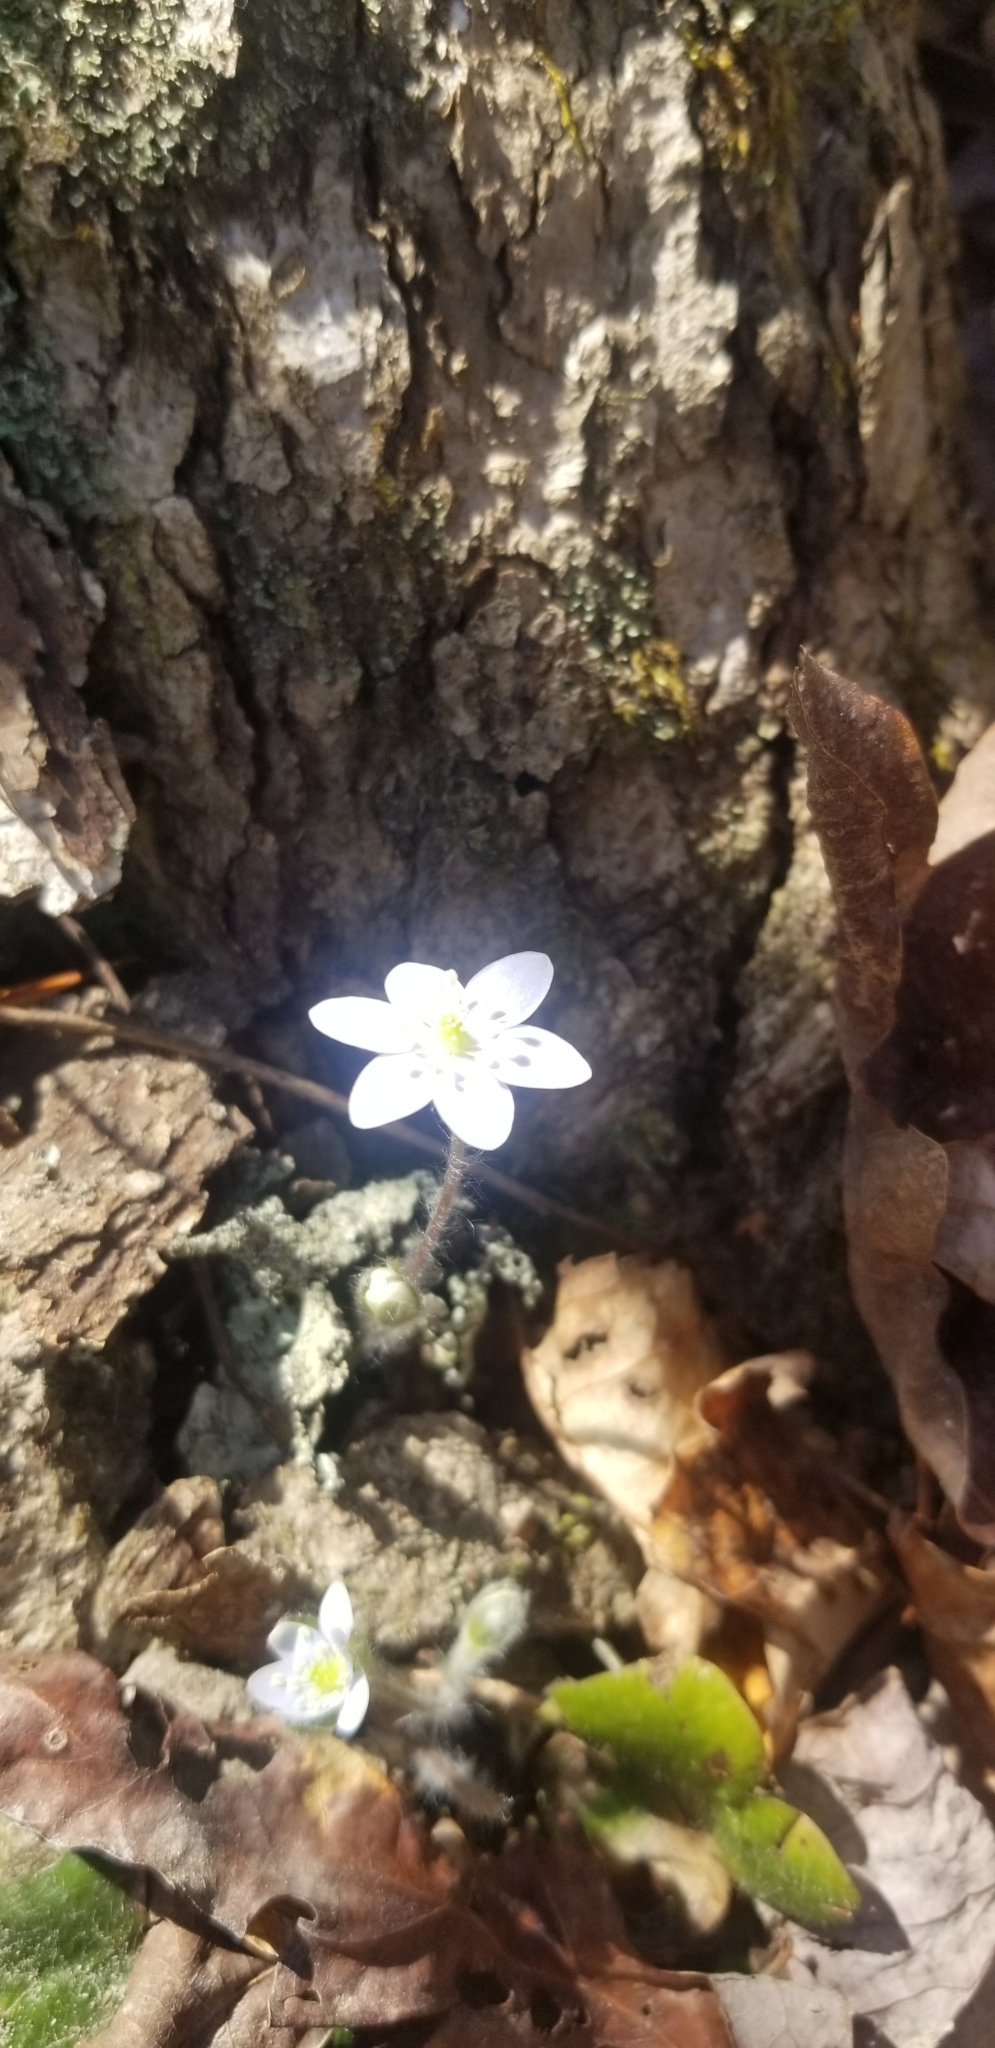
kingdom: Plantae
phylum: Tracheophyta
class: Magnoliopsida
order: Ranunculales
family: Ranunculaceae
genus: Hepatica
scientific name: Hepatica americana
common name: American hepatica
